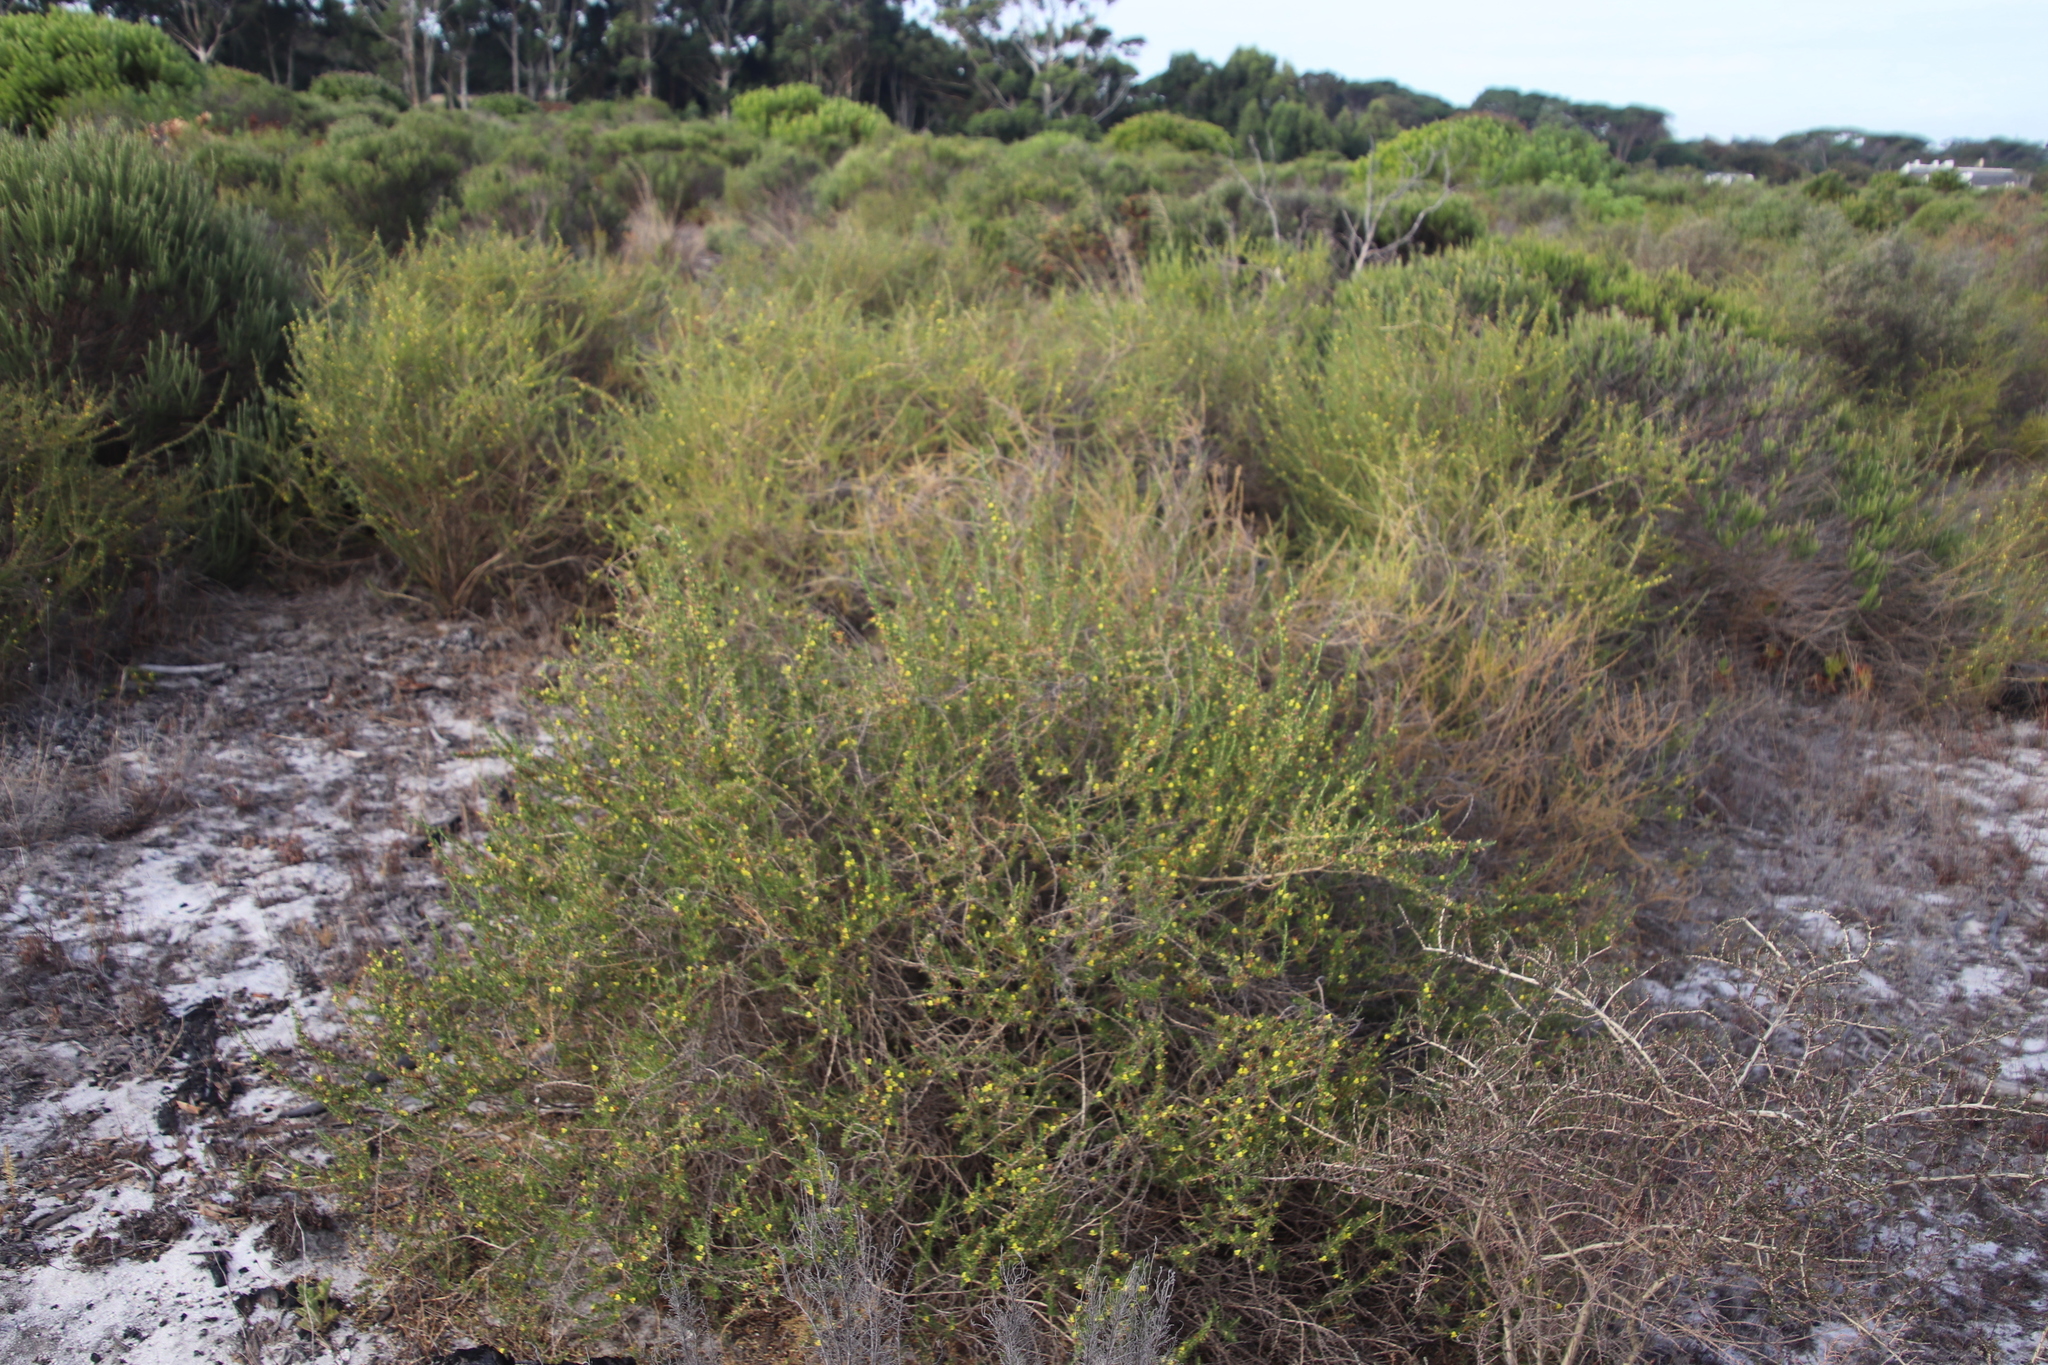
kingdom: Plantae
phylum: Tracheophyta
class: Magnoliopsida
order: Fabales
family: Fabaceae
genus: Aspalathus
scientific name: Aspalathus spinosa
